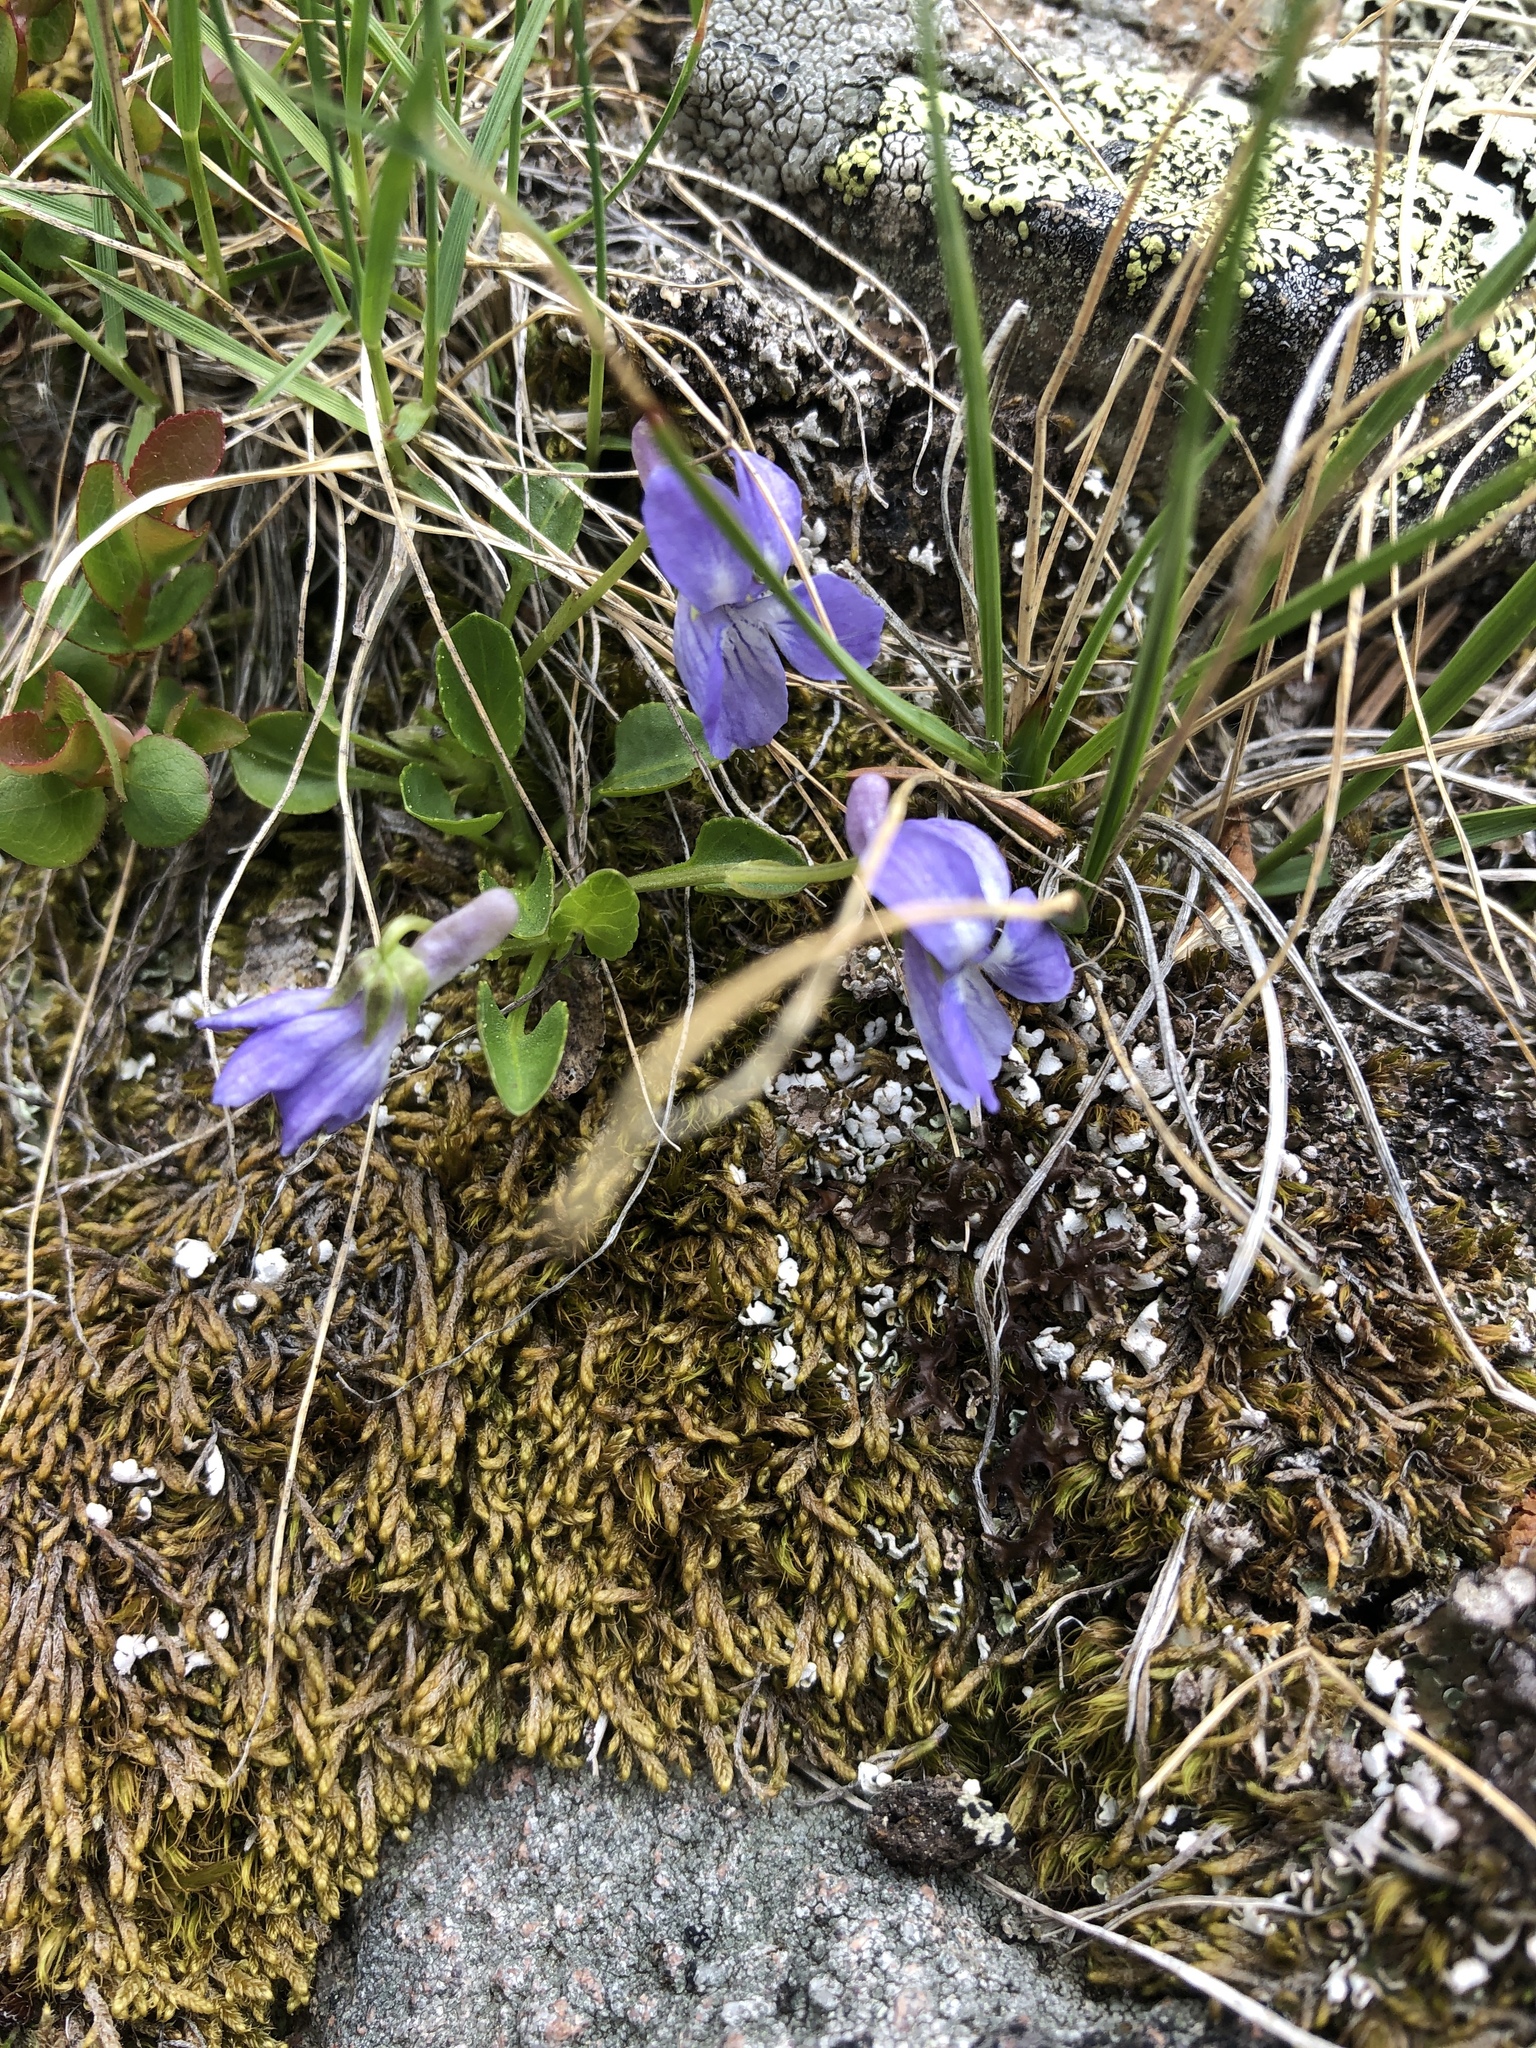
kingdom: Plantae
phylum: Tracheophyta
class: Magnoliopsida
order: Malpighiales
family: Violaceae
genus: Viola
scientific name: Viola adunca
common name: Sand violet
